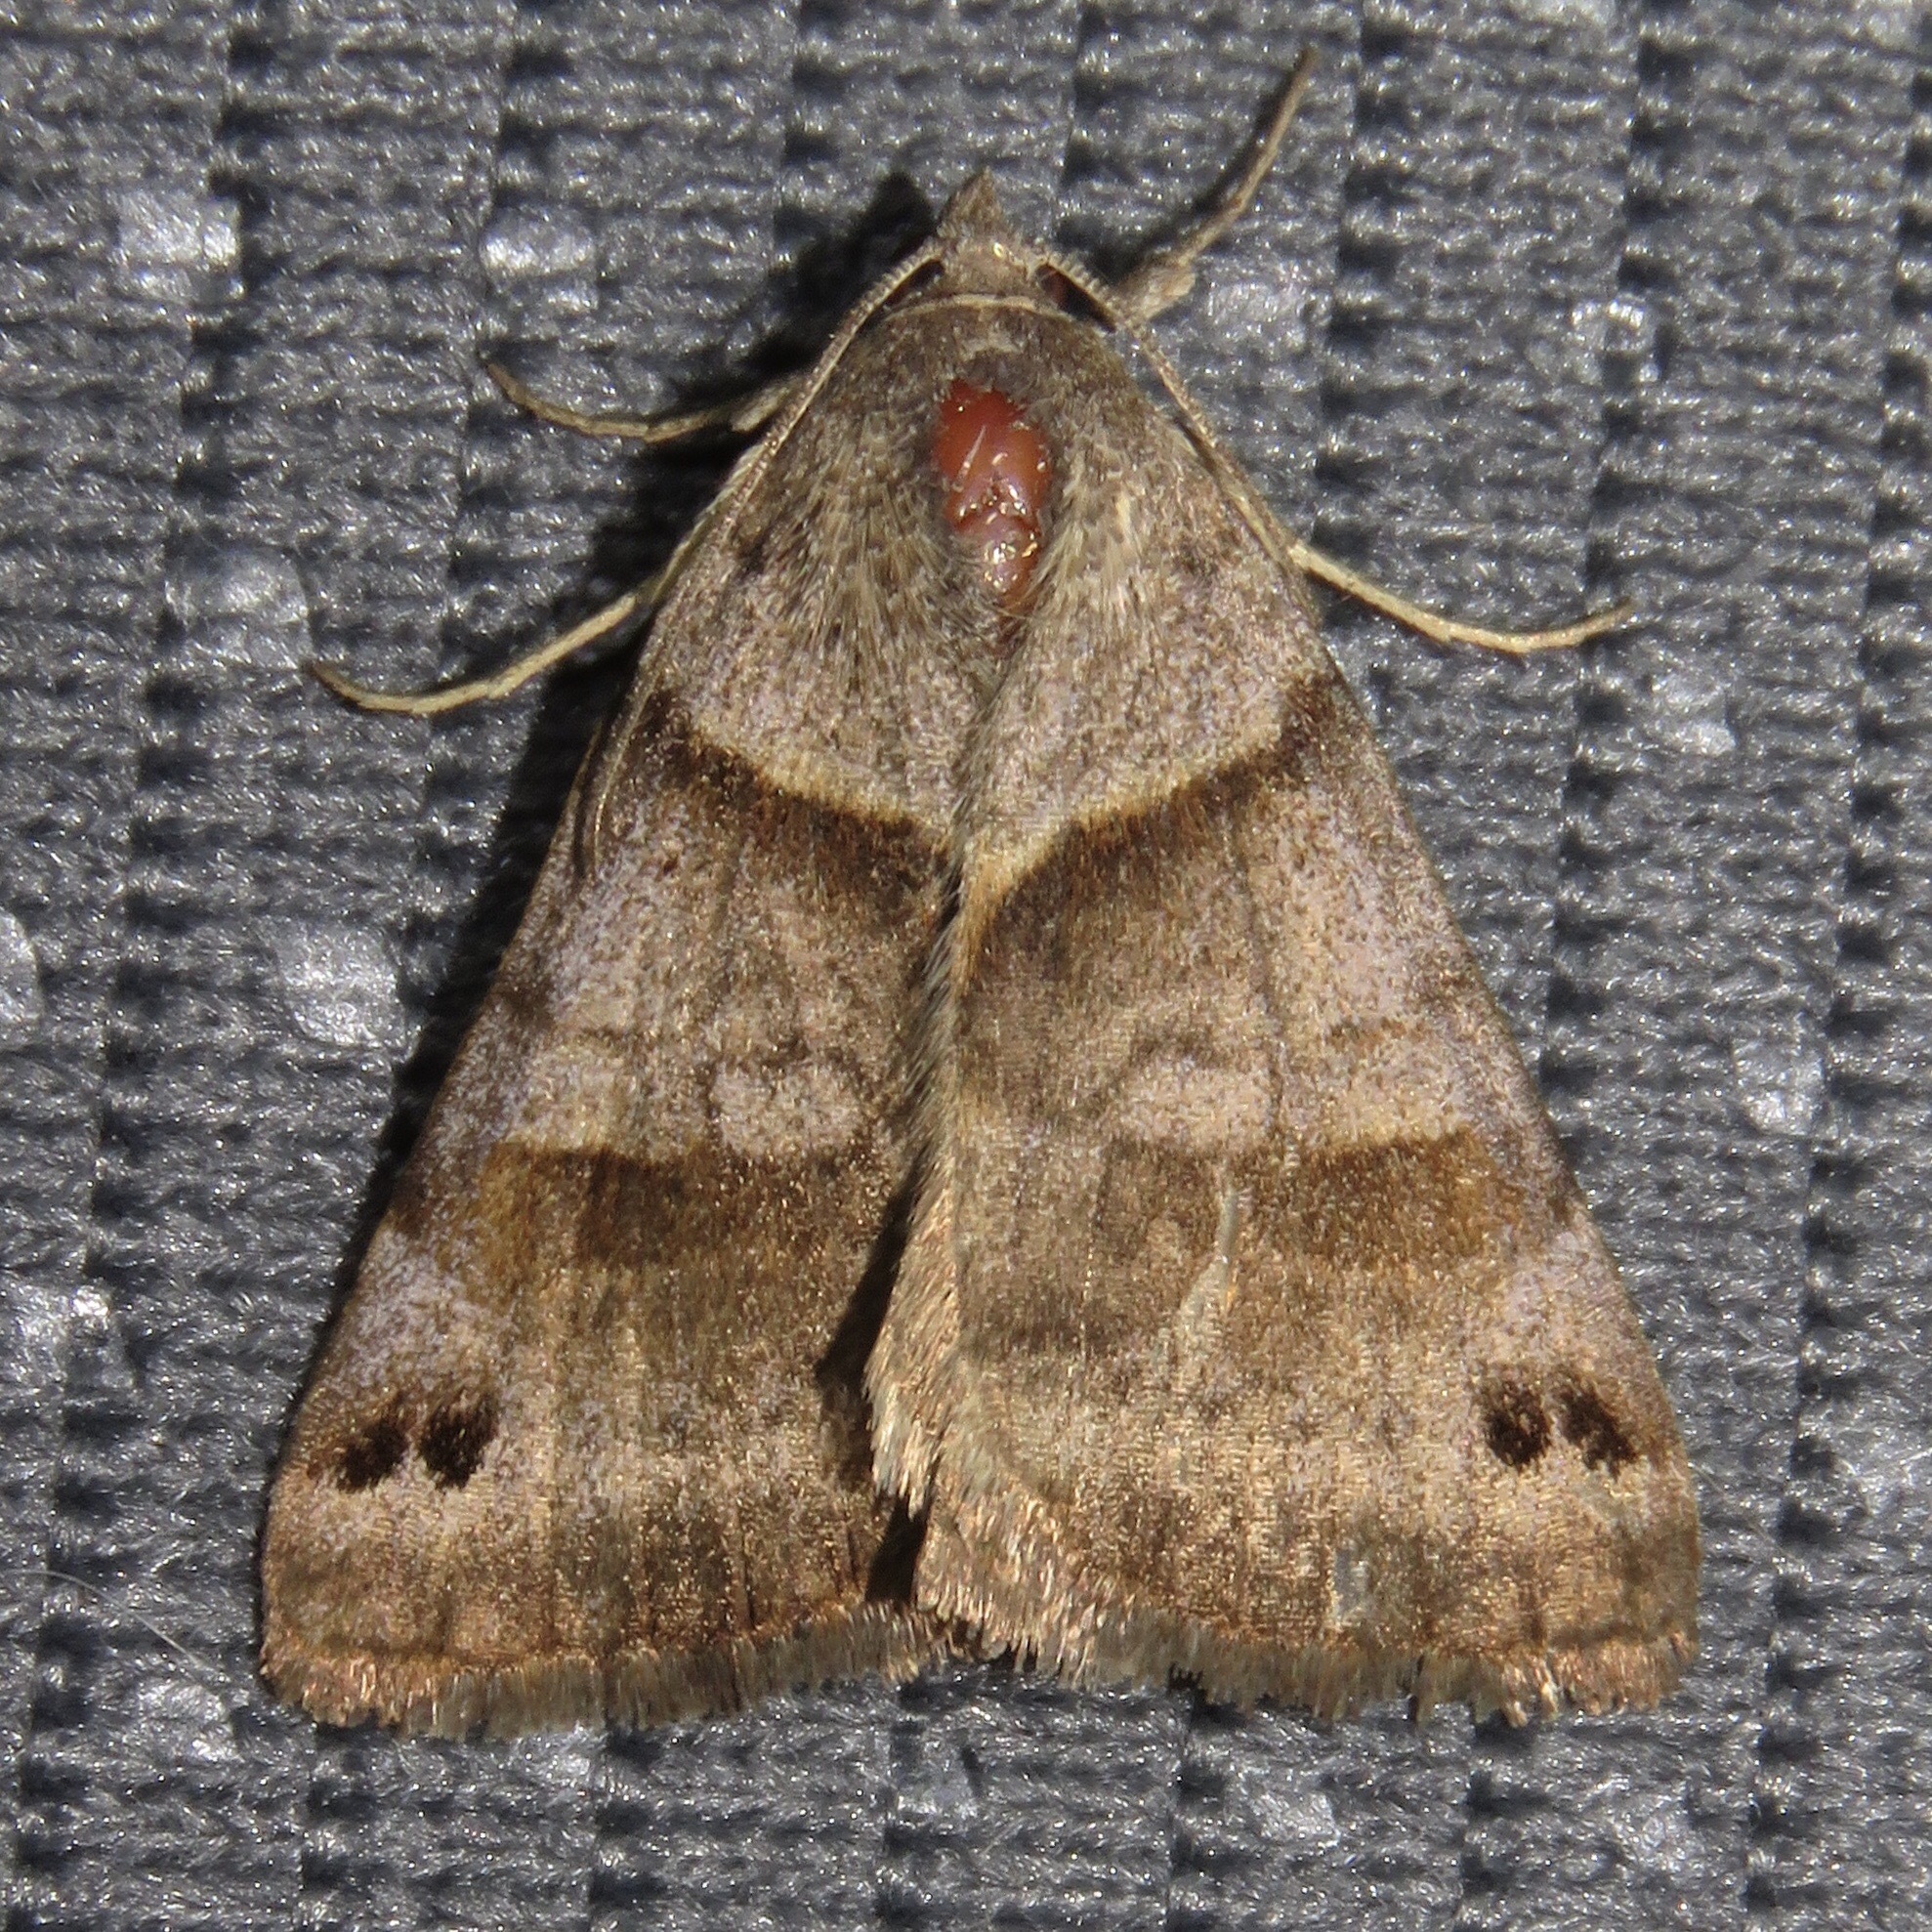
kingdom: Animalia
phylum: Arthropoda
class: Insecta
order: Lepidoptera
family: Erebidae
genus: Caenurgina
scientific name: Caenurgina crassiuscula
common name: Double-barred
